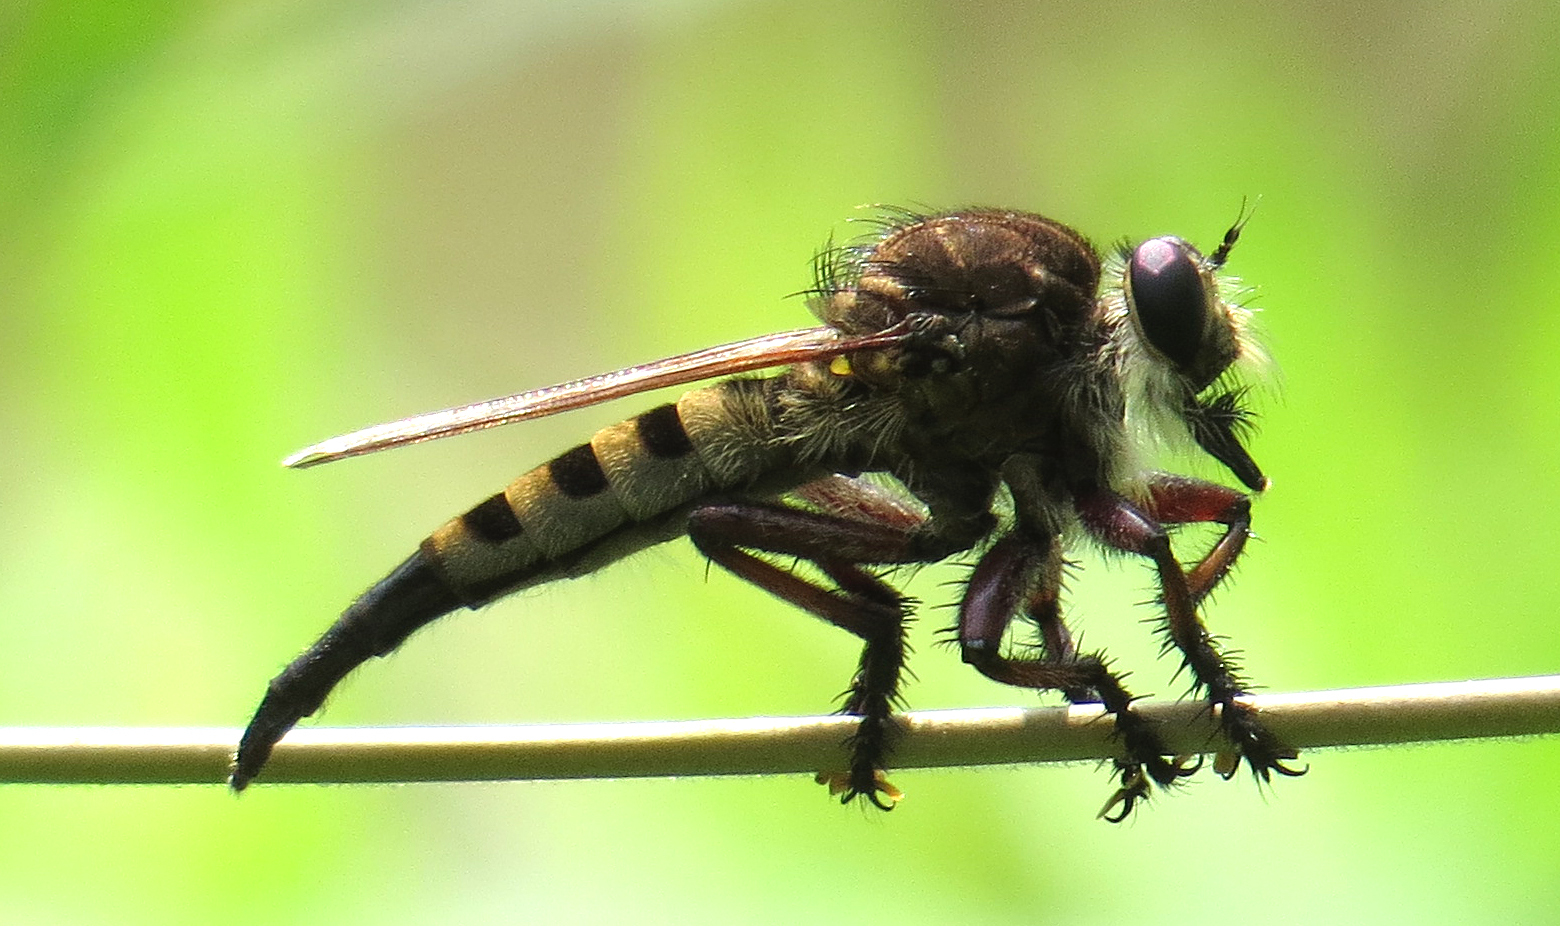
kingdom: Animalia
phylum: Arthropoda
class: Insecta
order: Diptera
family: Asilidae
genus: Promachus
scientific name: Promachus hinei
